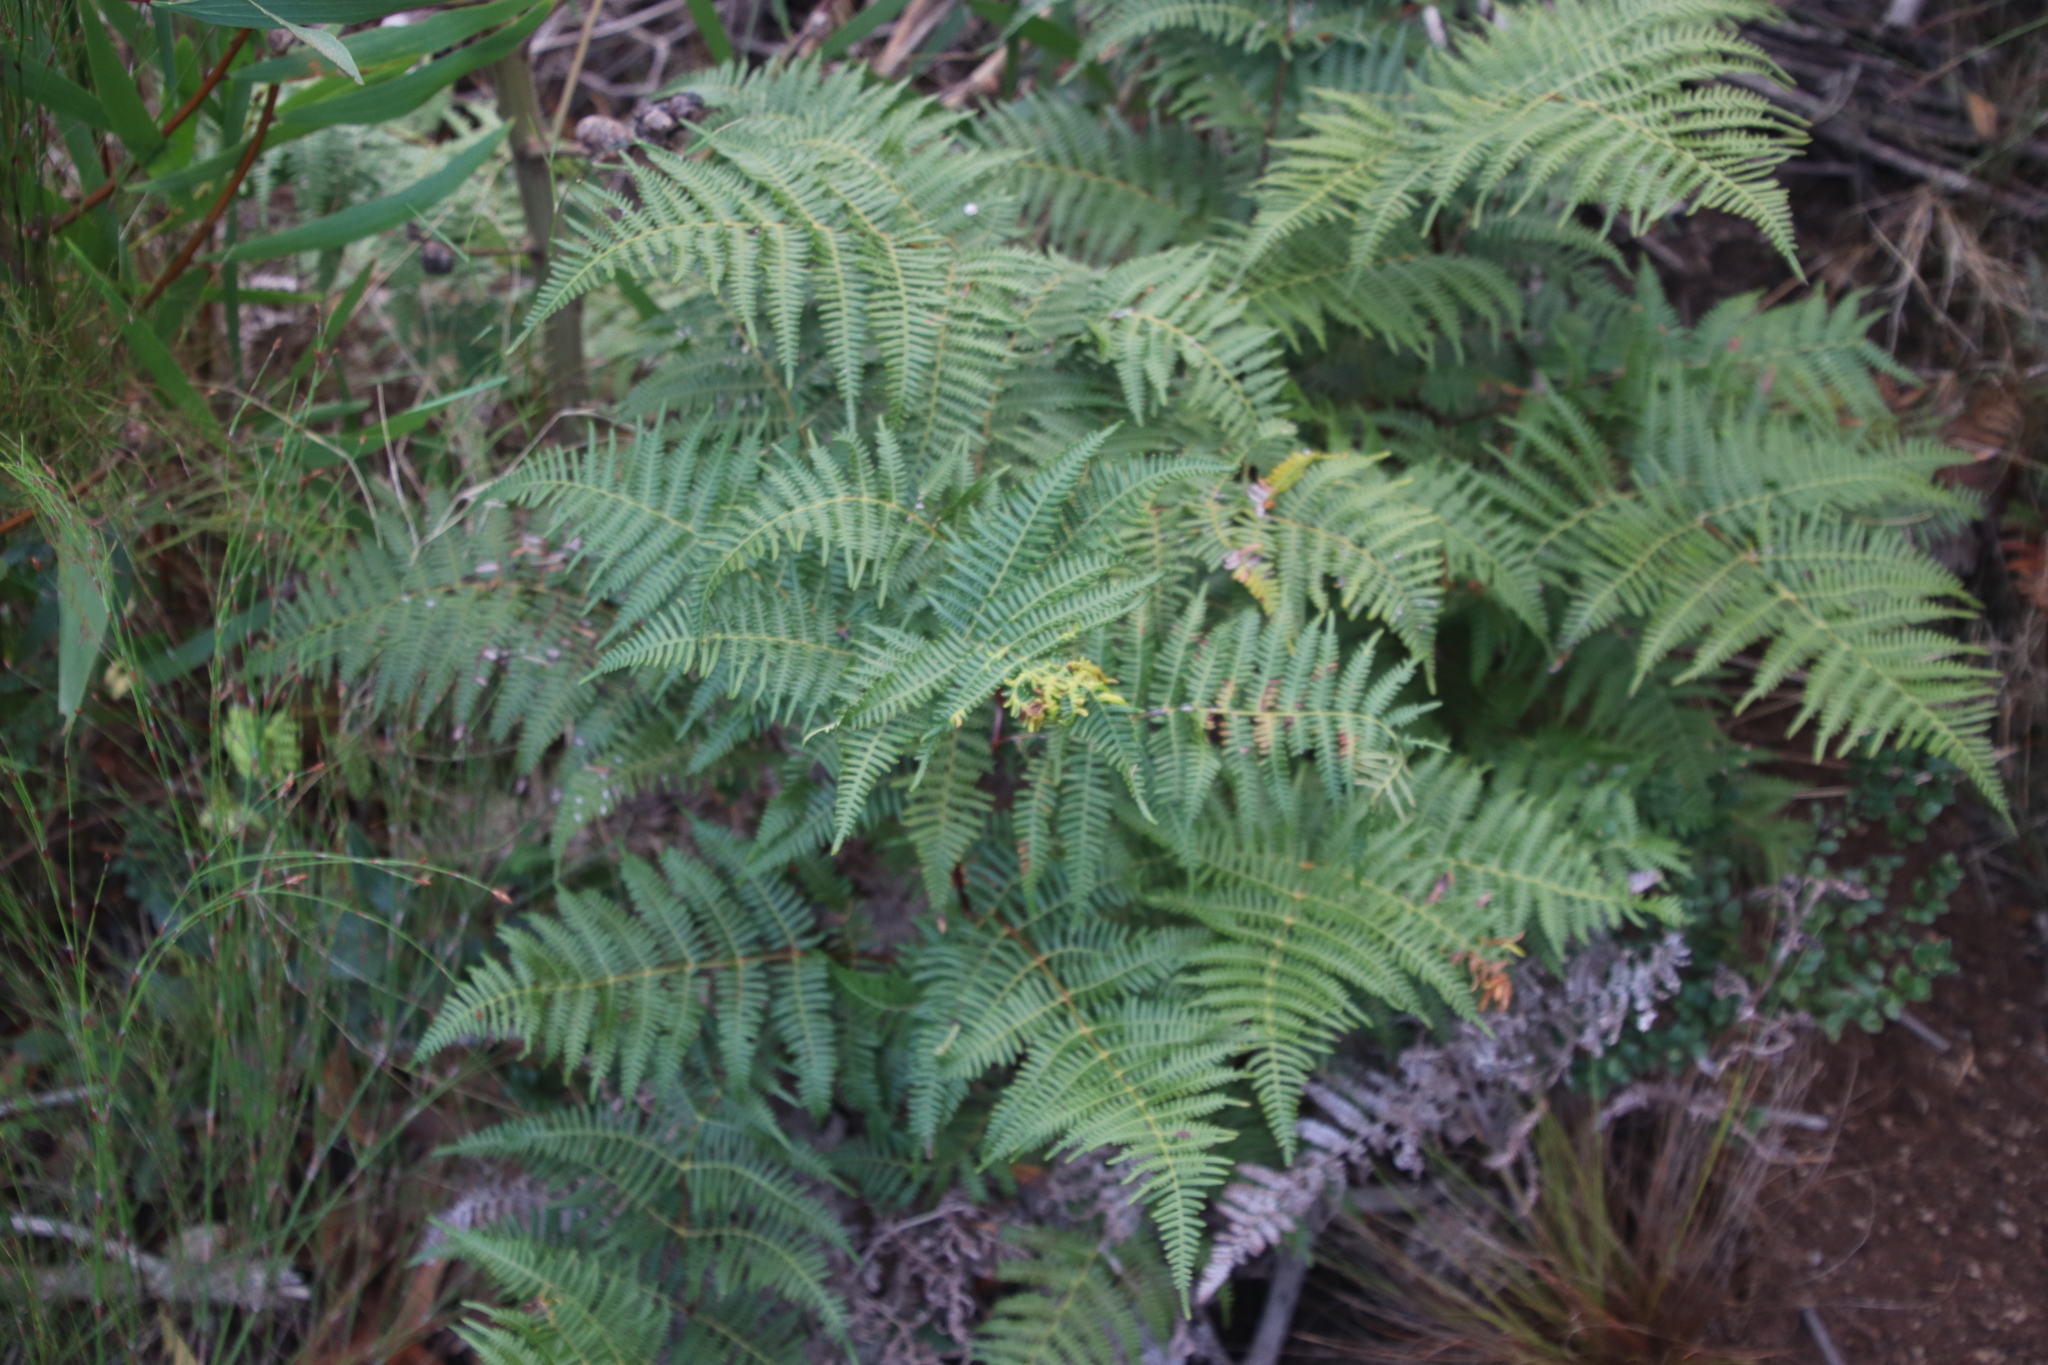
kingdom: Plantae
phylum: Tracheophyta
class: Polypodiopsida
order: Polypodiales
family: Dennstaedtiaceae
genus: Pteridium
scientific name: Pteridium aquilinum
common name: Bracken
